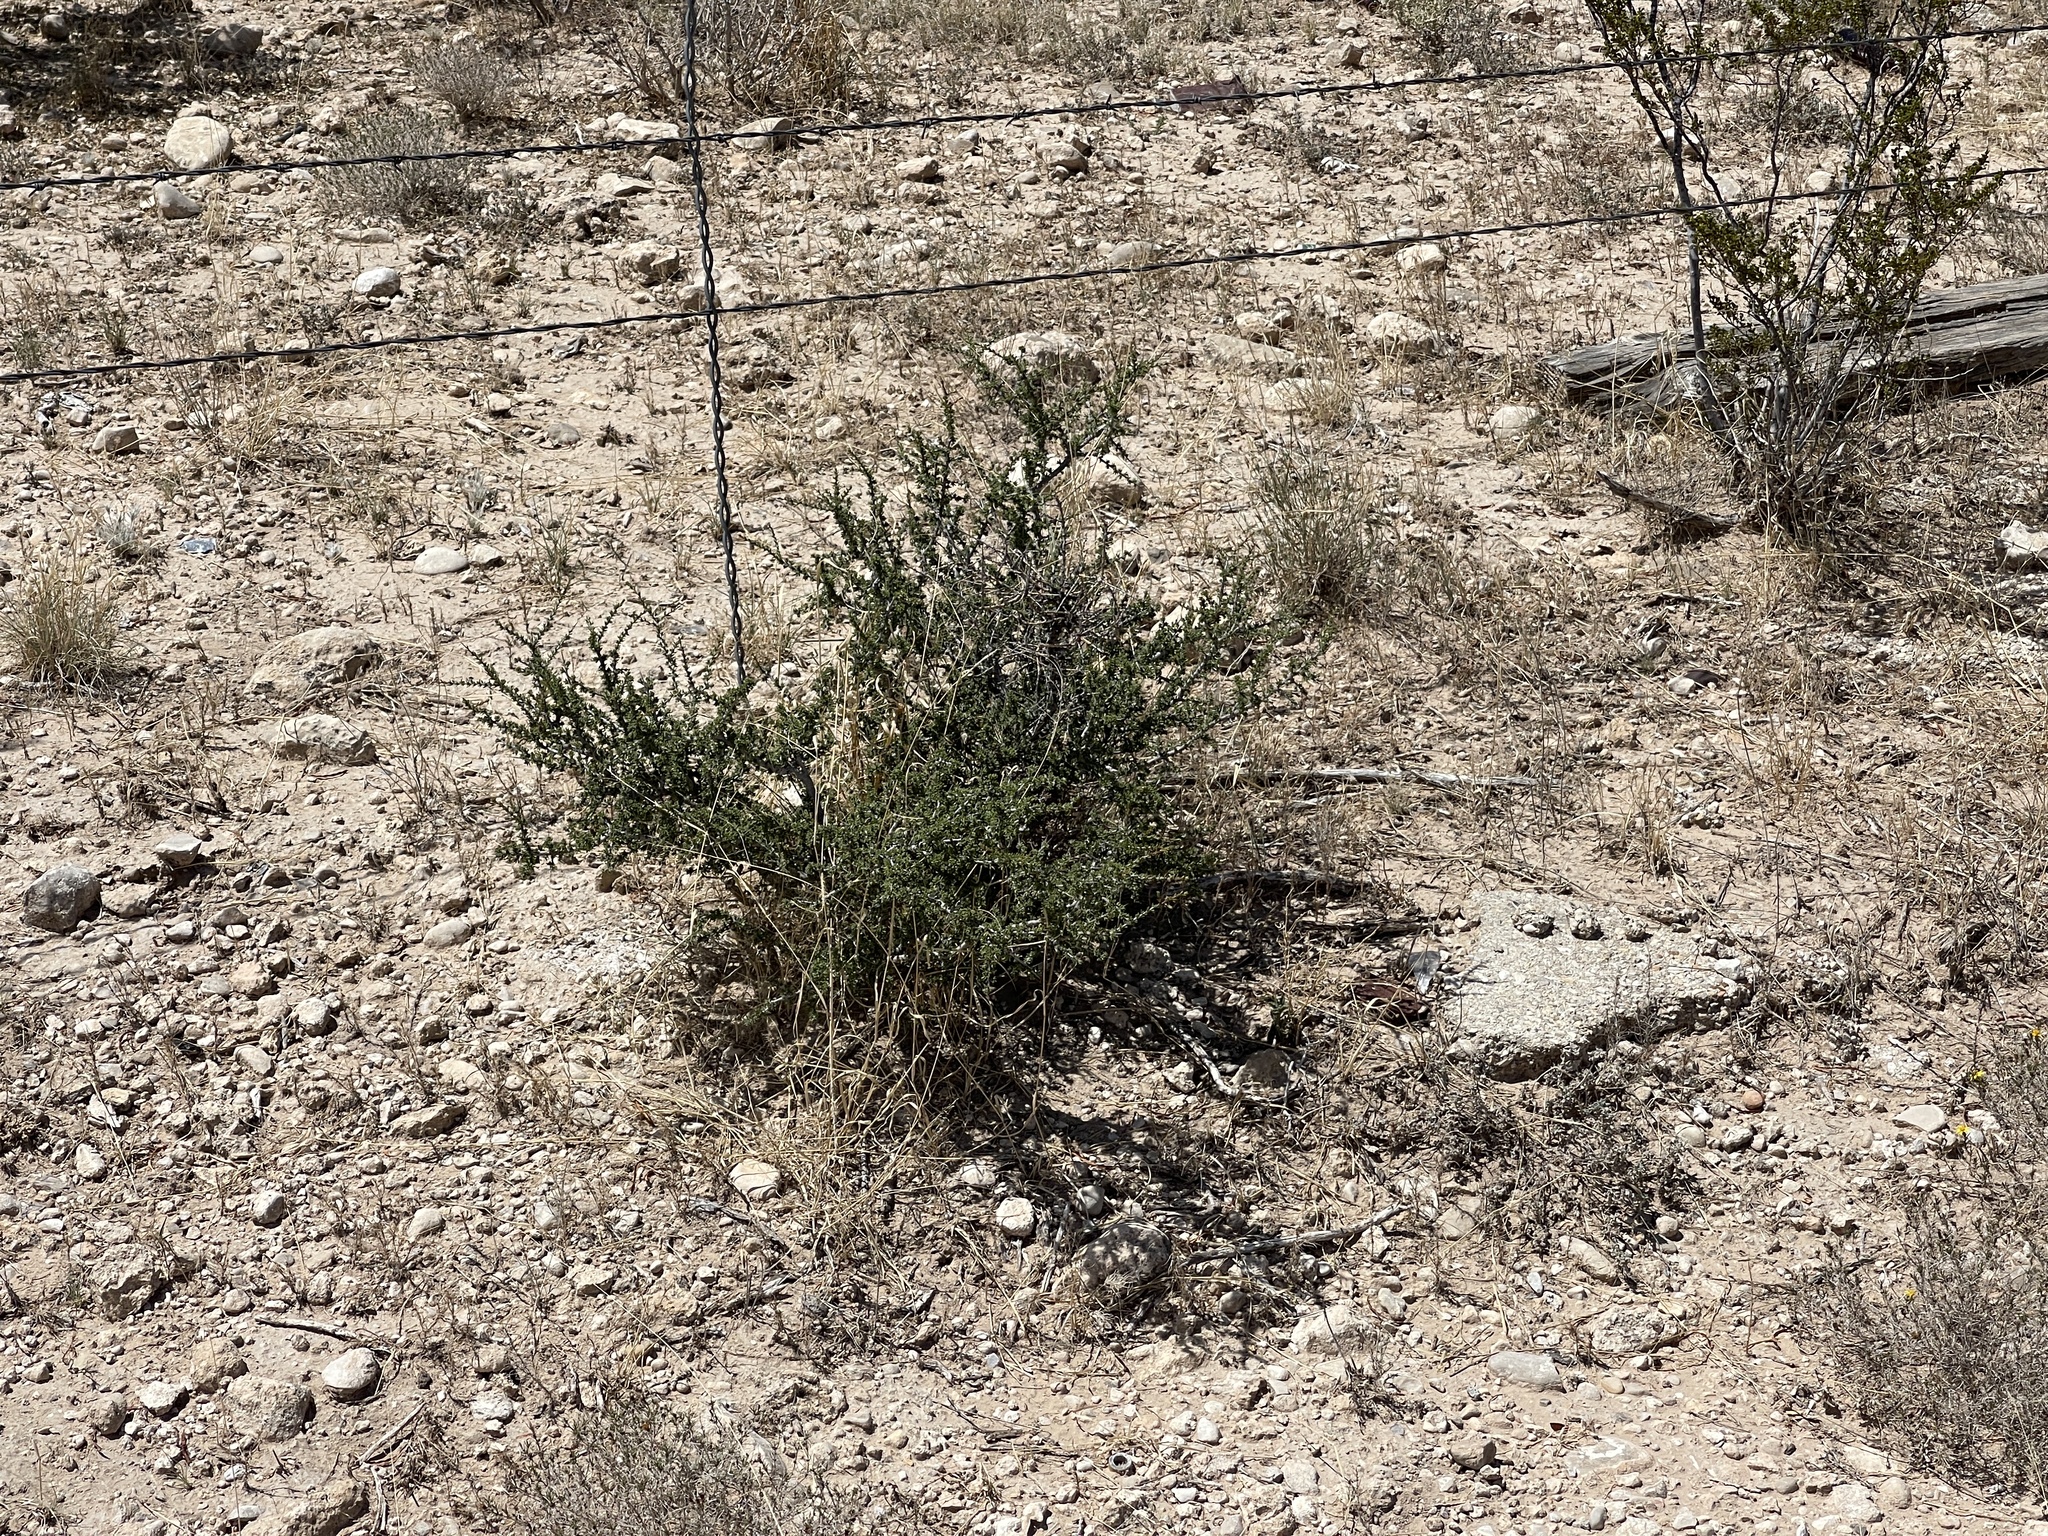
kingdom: Plantae
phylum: Tracheophyta
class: Magnoliopsida
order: Rosales
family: Rhamnaceae
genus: Condalia
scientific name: Condalia ericoides
